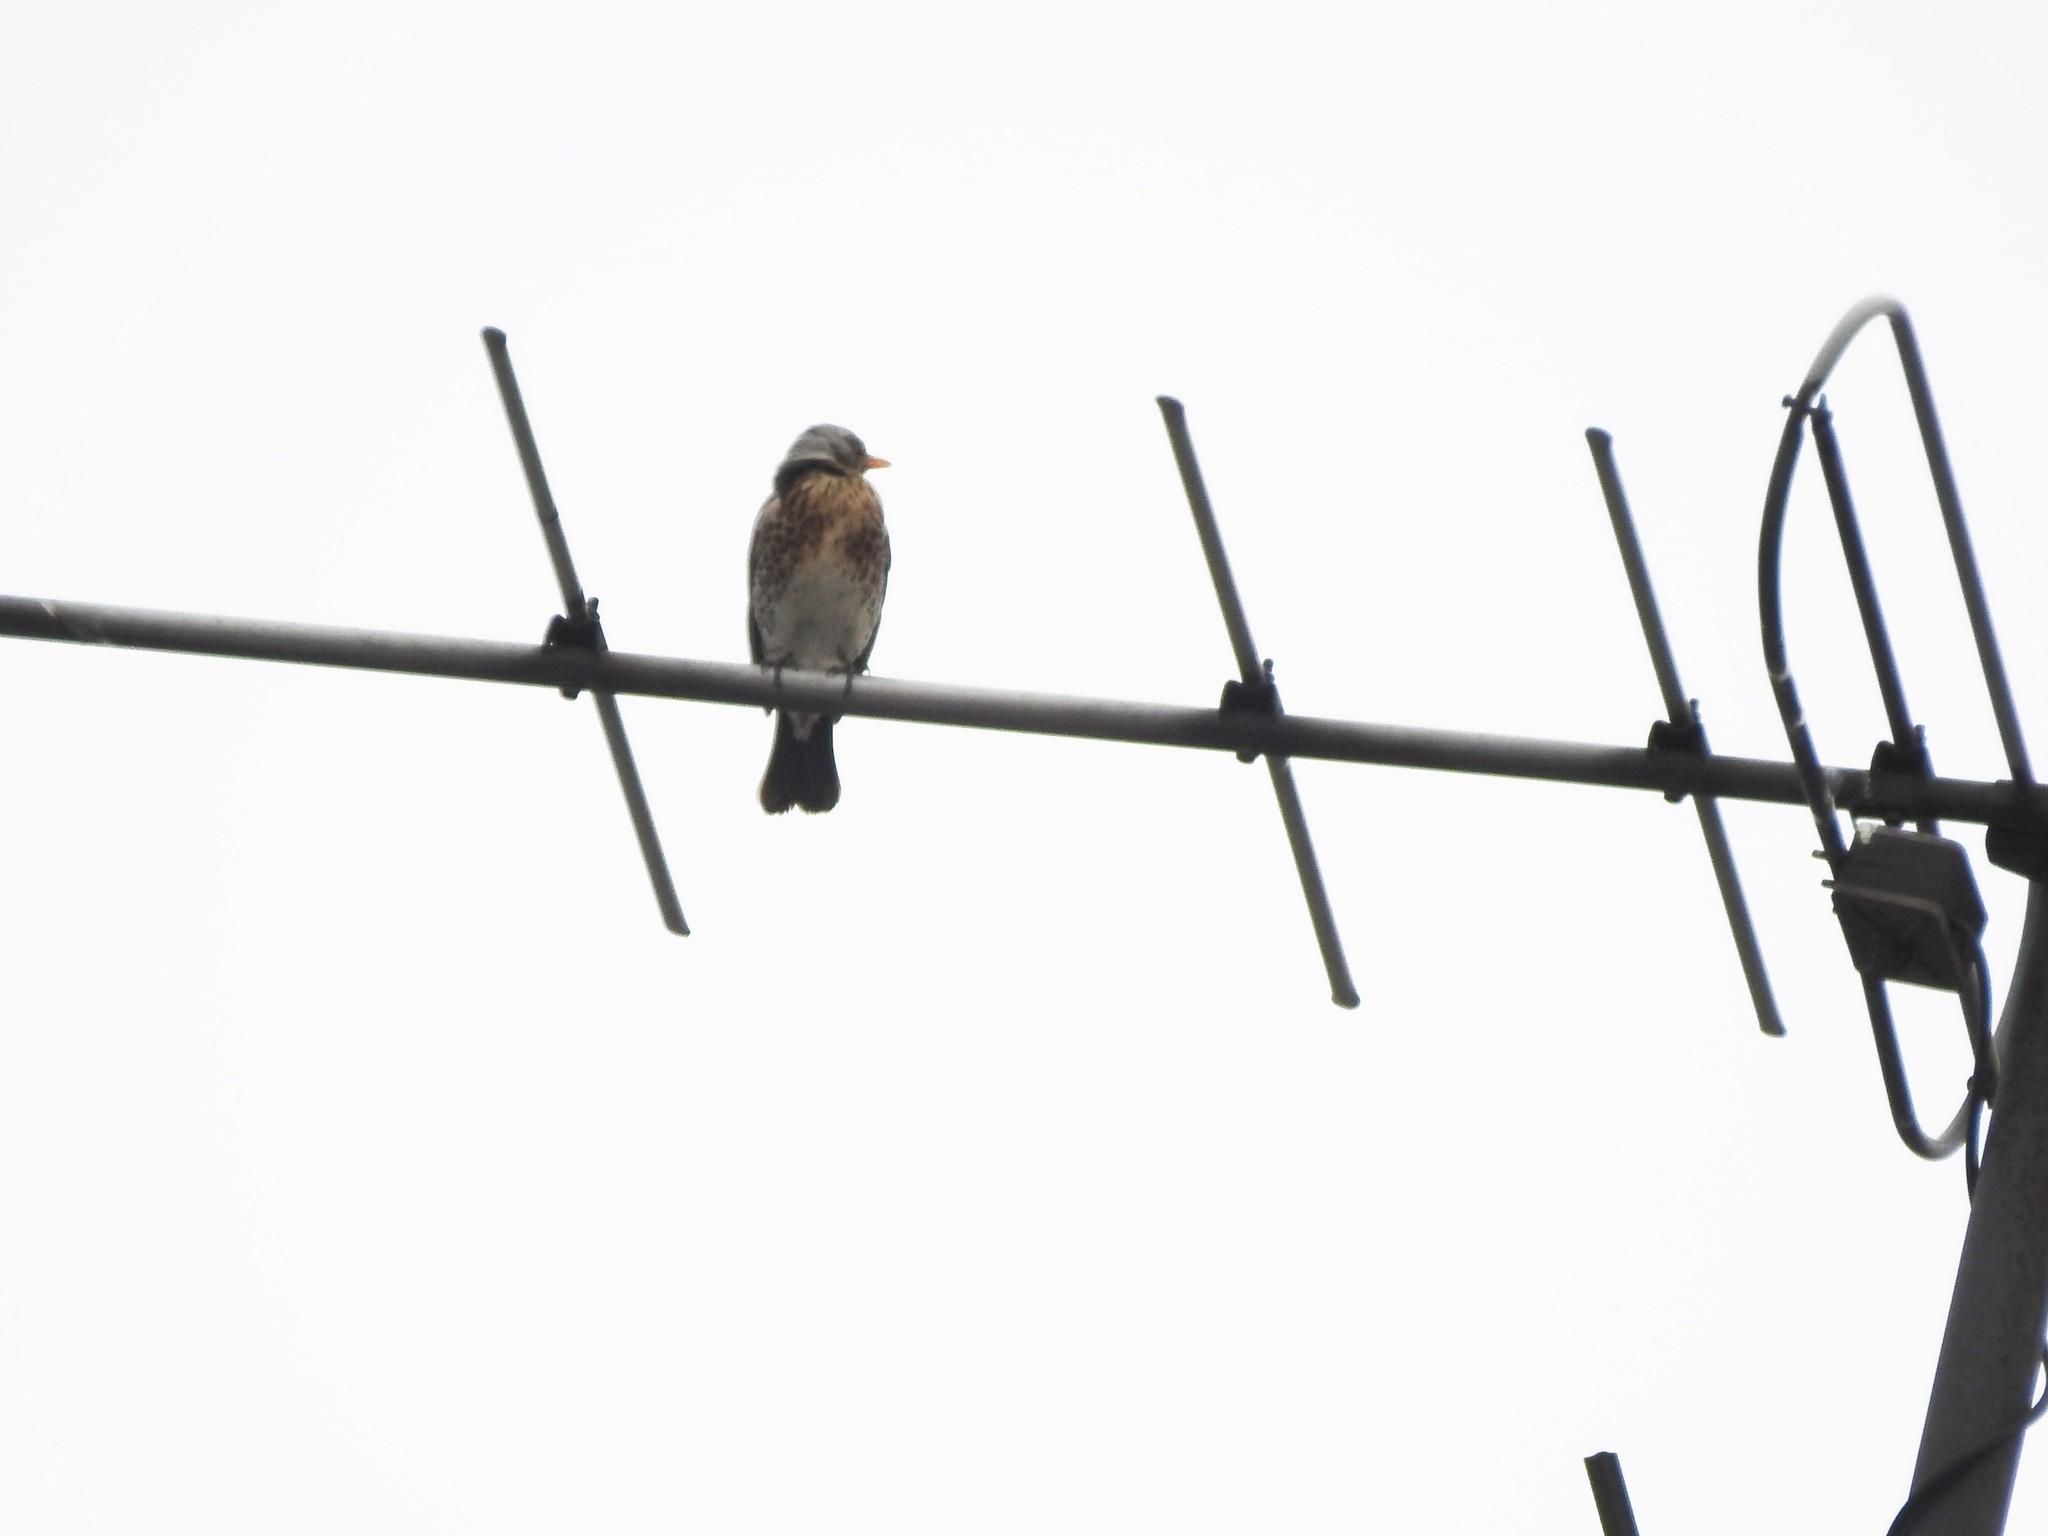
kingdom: Animalia
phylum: Chordata
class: Aves
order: Passeriformes
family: Turdidae
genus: Turdus
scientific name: Turdus pilaris
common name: Fieldfare
